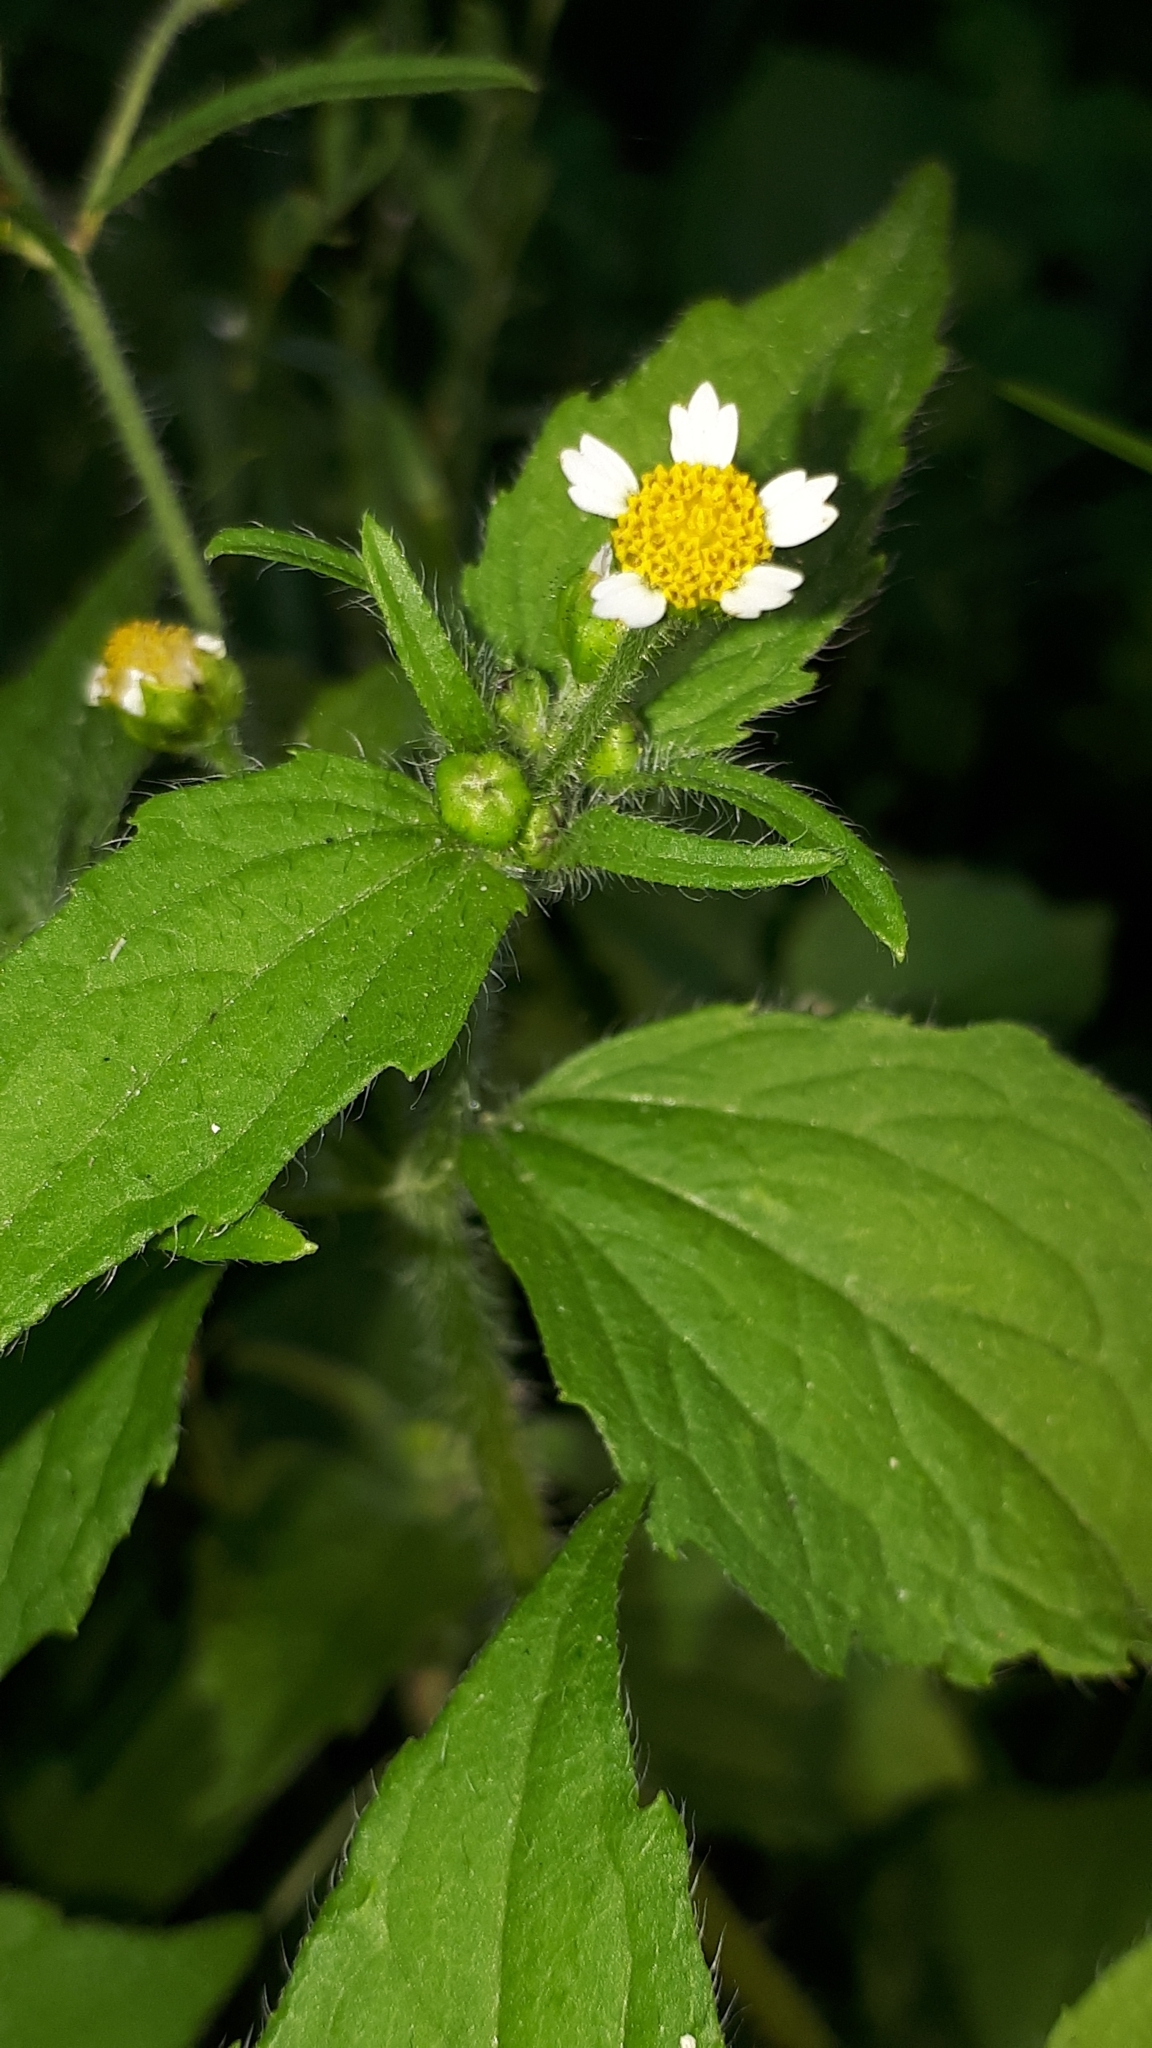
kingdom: Plantae
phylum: Tracheophyta
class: Magnoliopsida
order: Asterales
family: Asteraceae
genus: Galinsoga
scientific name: Galinsoga quadriradiata
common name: Shaggy soldier
